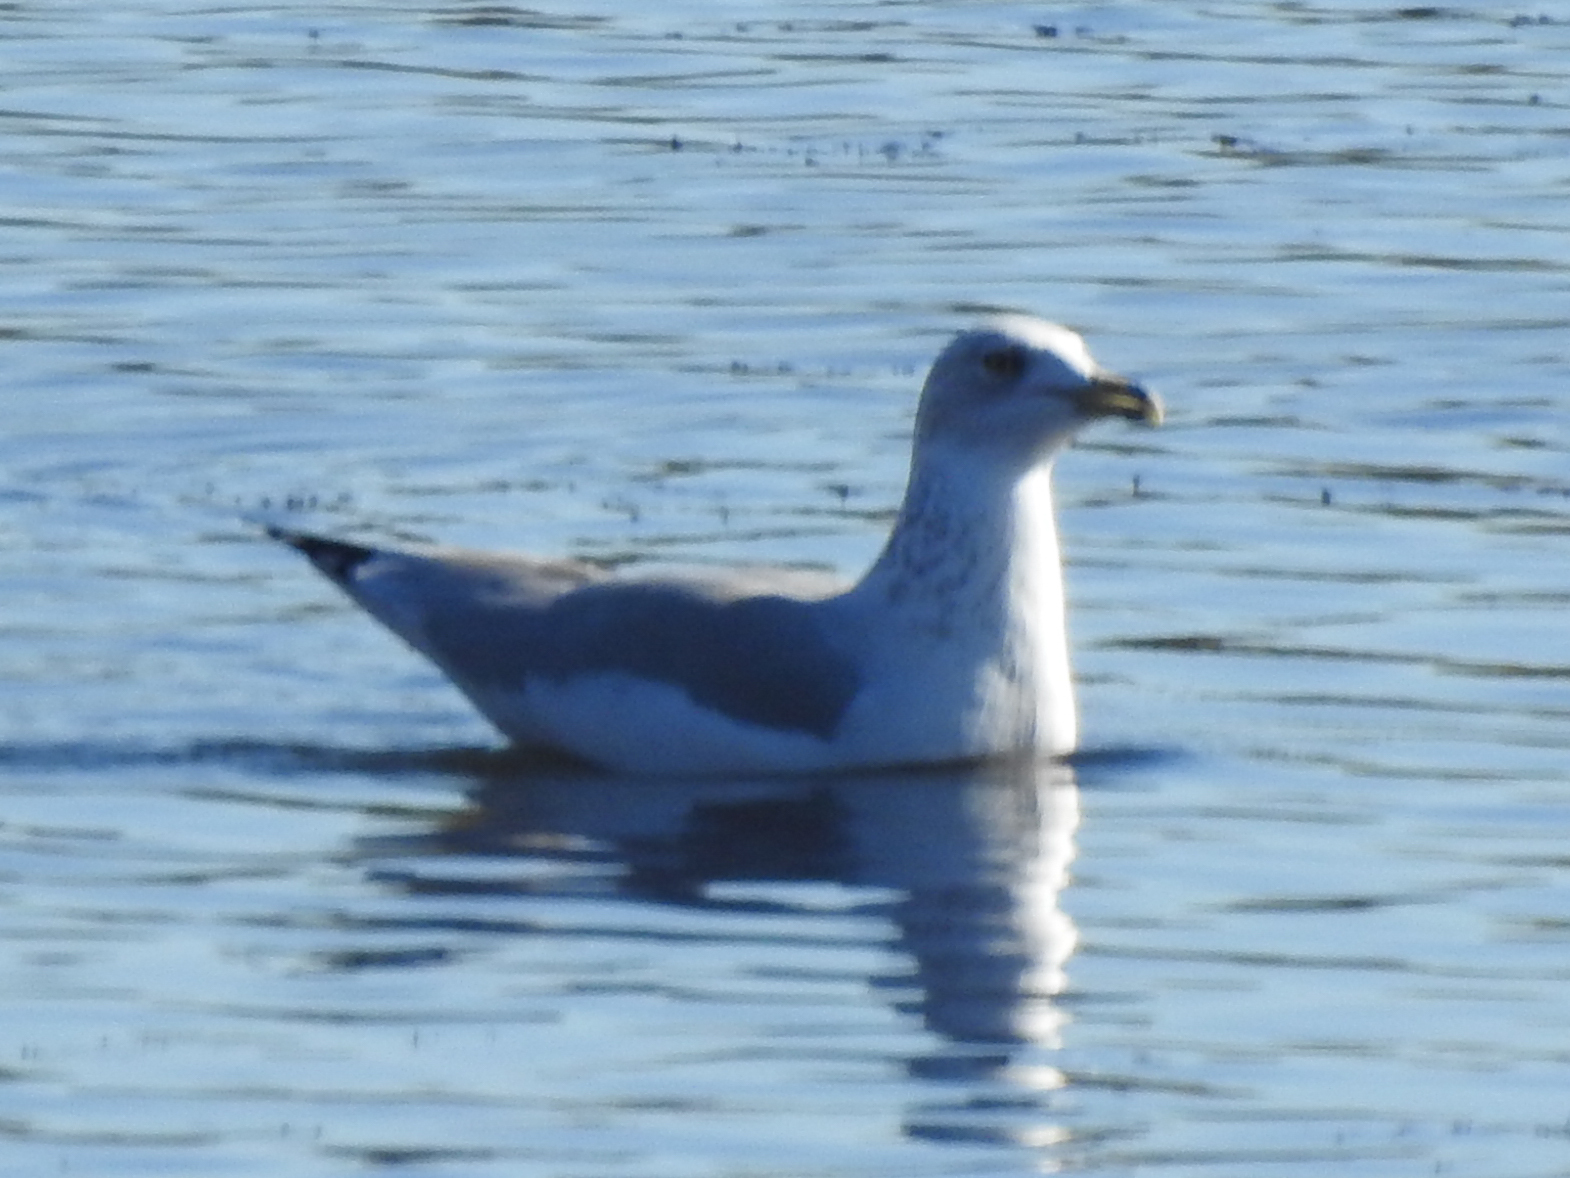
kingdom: Animalia
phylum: Chordata
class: Aves
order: Charadriiformes
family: Laridae
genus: Larus
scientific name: Larus delawarensis
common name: Ring-billed gull
